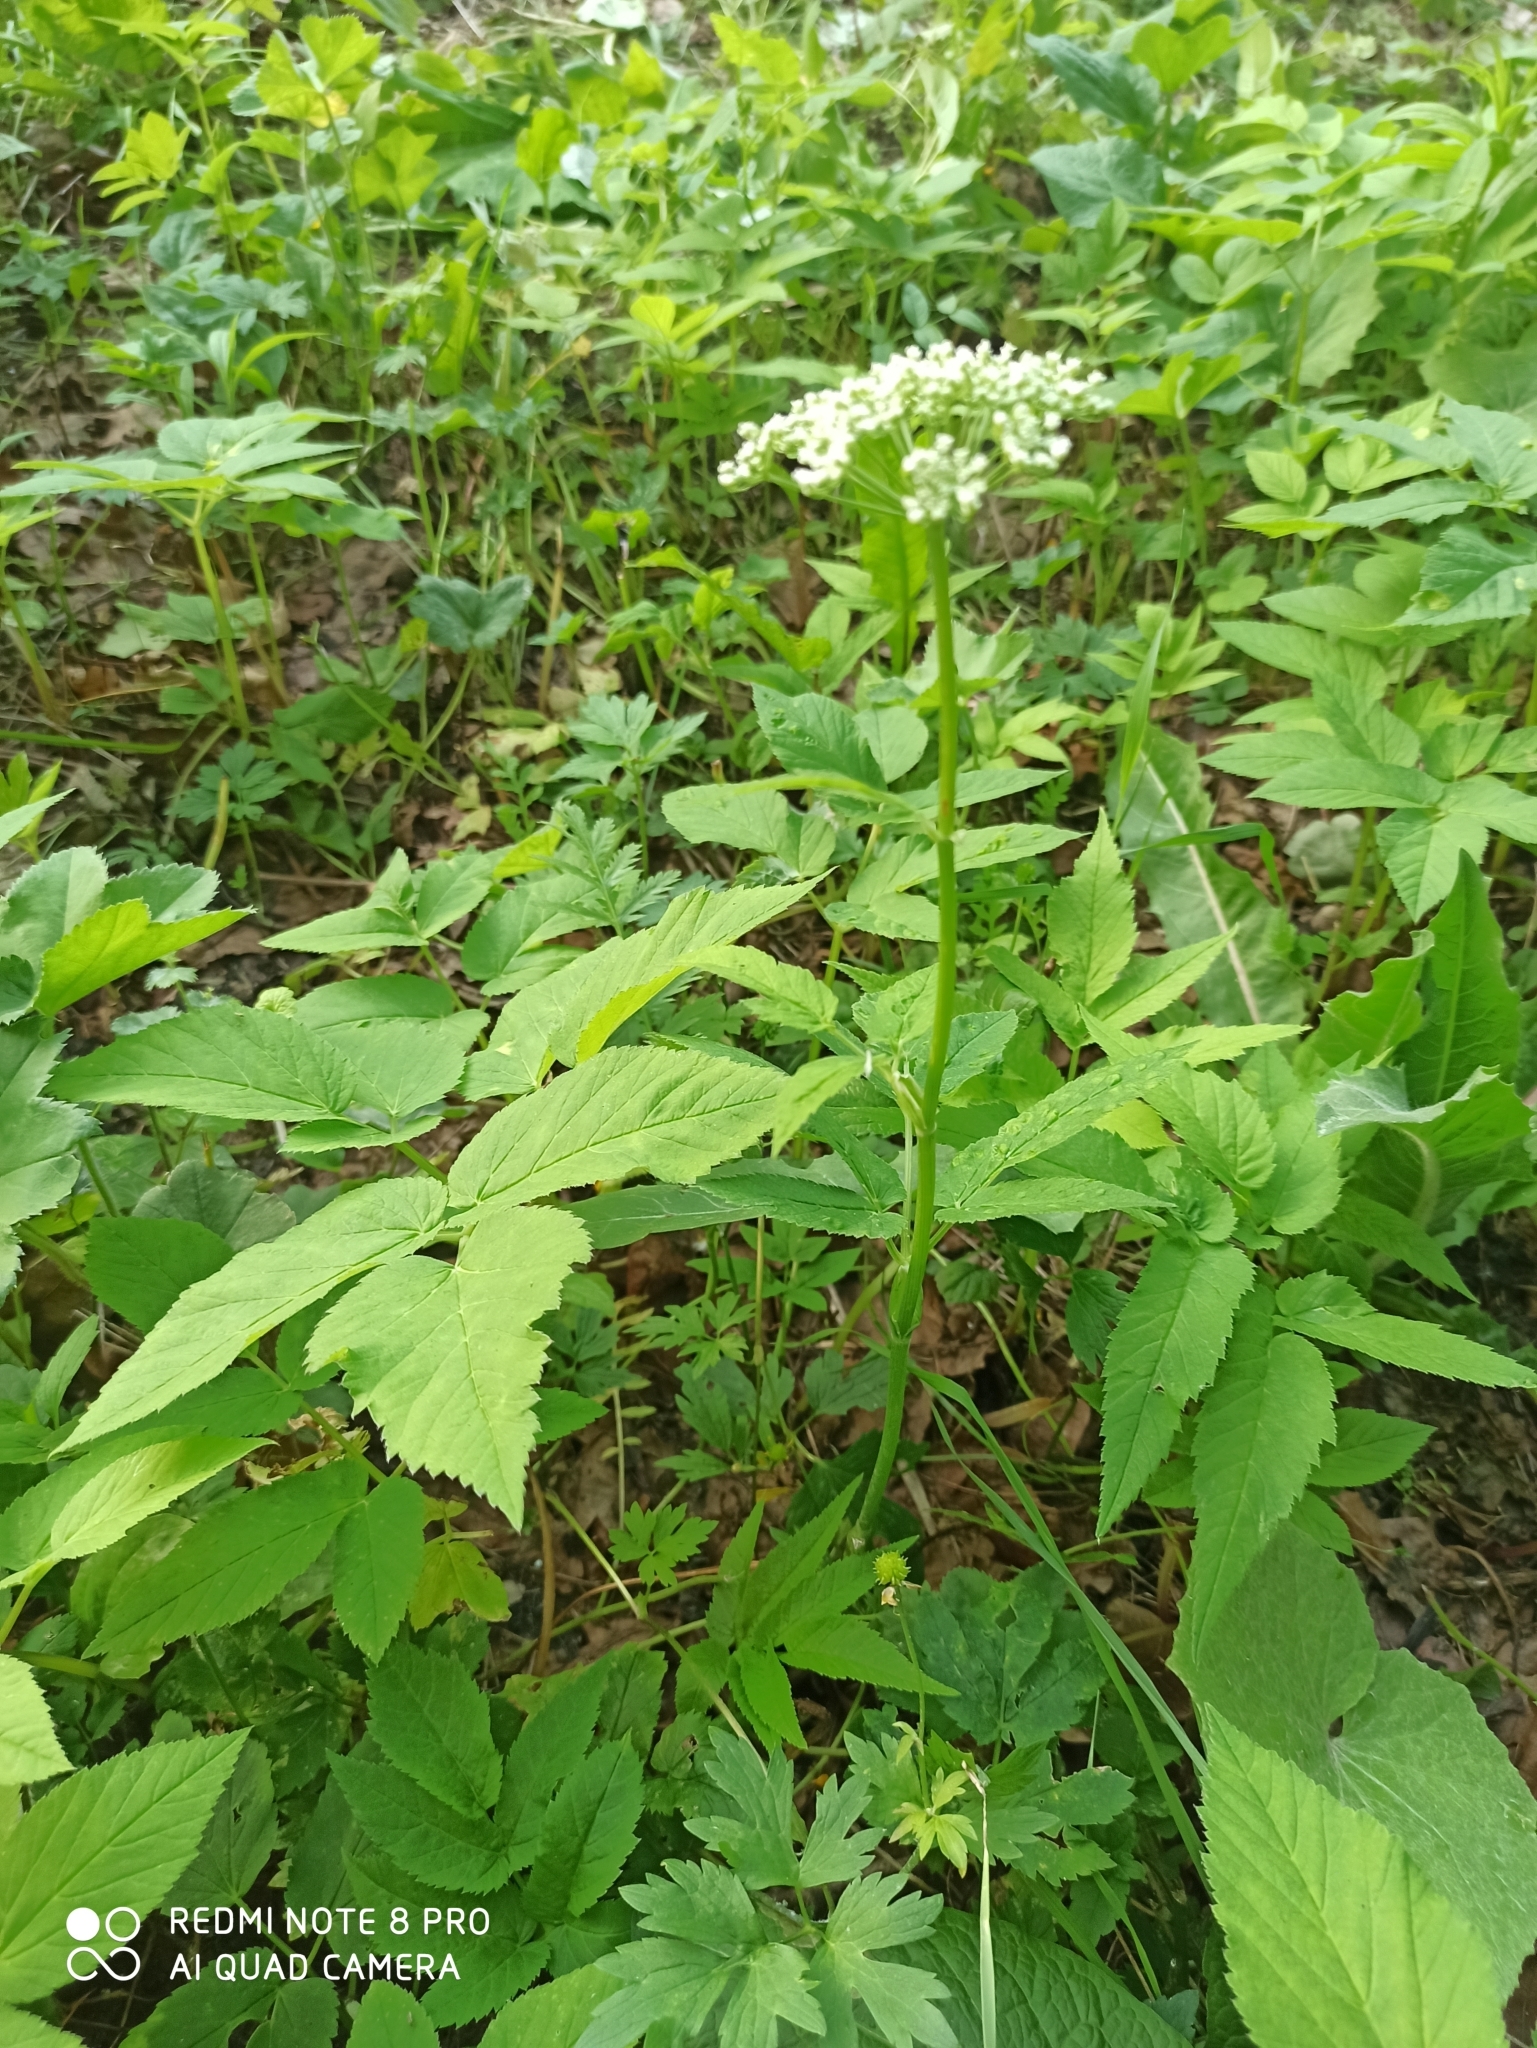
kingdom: Plantae
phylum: Tracheophyta
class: Magnoliopsida
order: Apiales
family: Apiaceae
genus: Aegopodium
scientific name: Aegopodium podagraria
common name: Ground-elder
